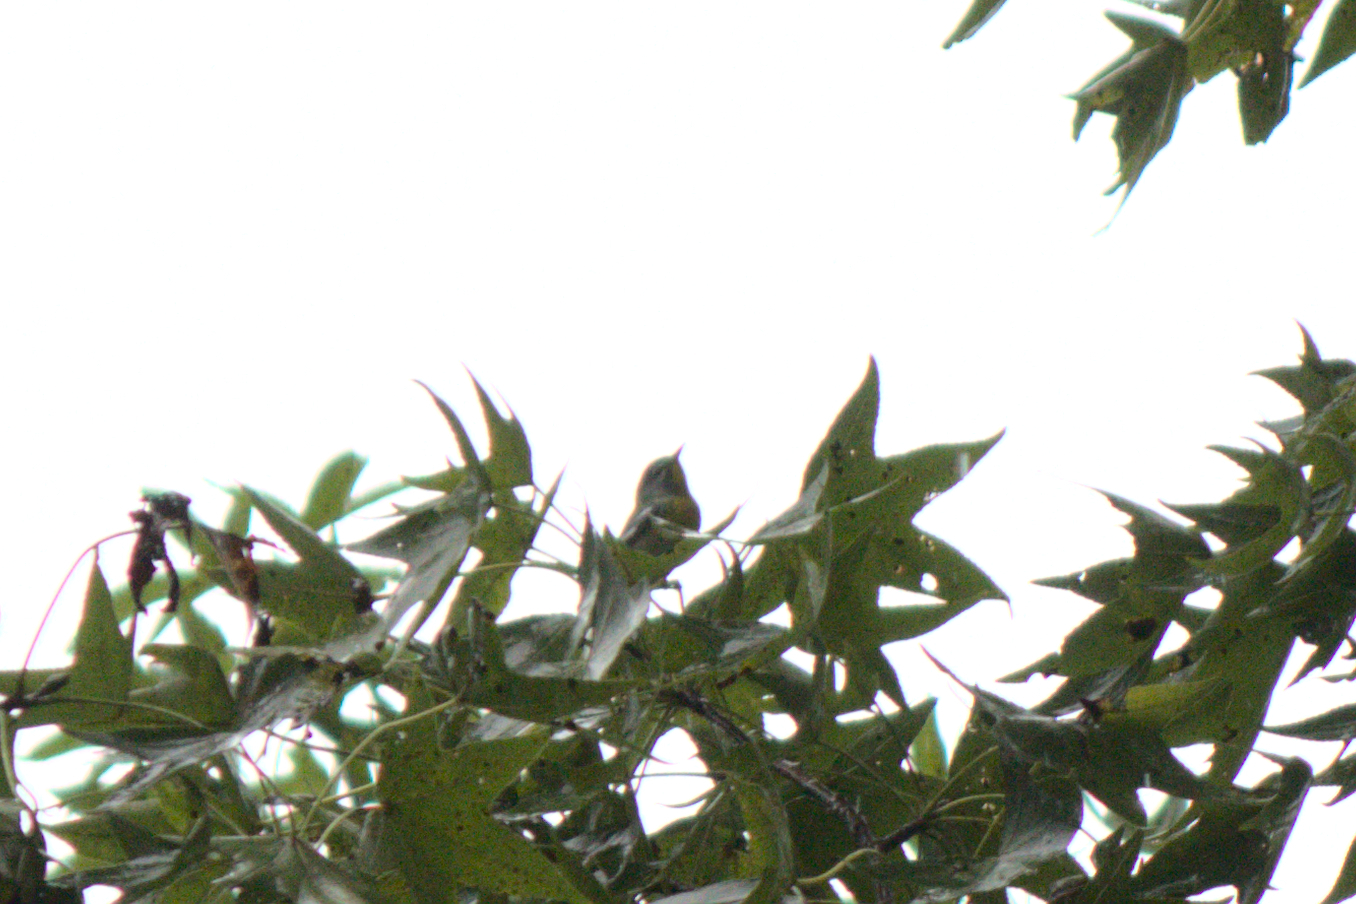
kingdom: Animalia
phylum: Chordata
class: Aves
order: Passeriformes
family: Parulidae
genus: Setophaga
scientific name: Setophaga americana
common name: Northern parula
